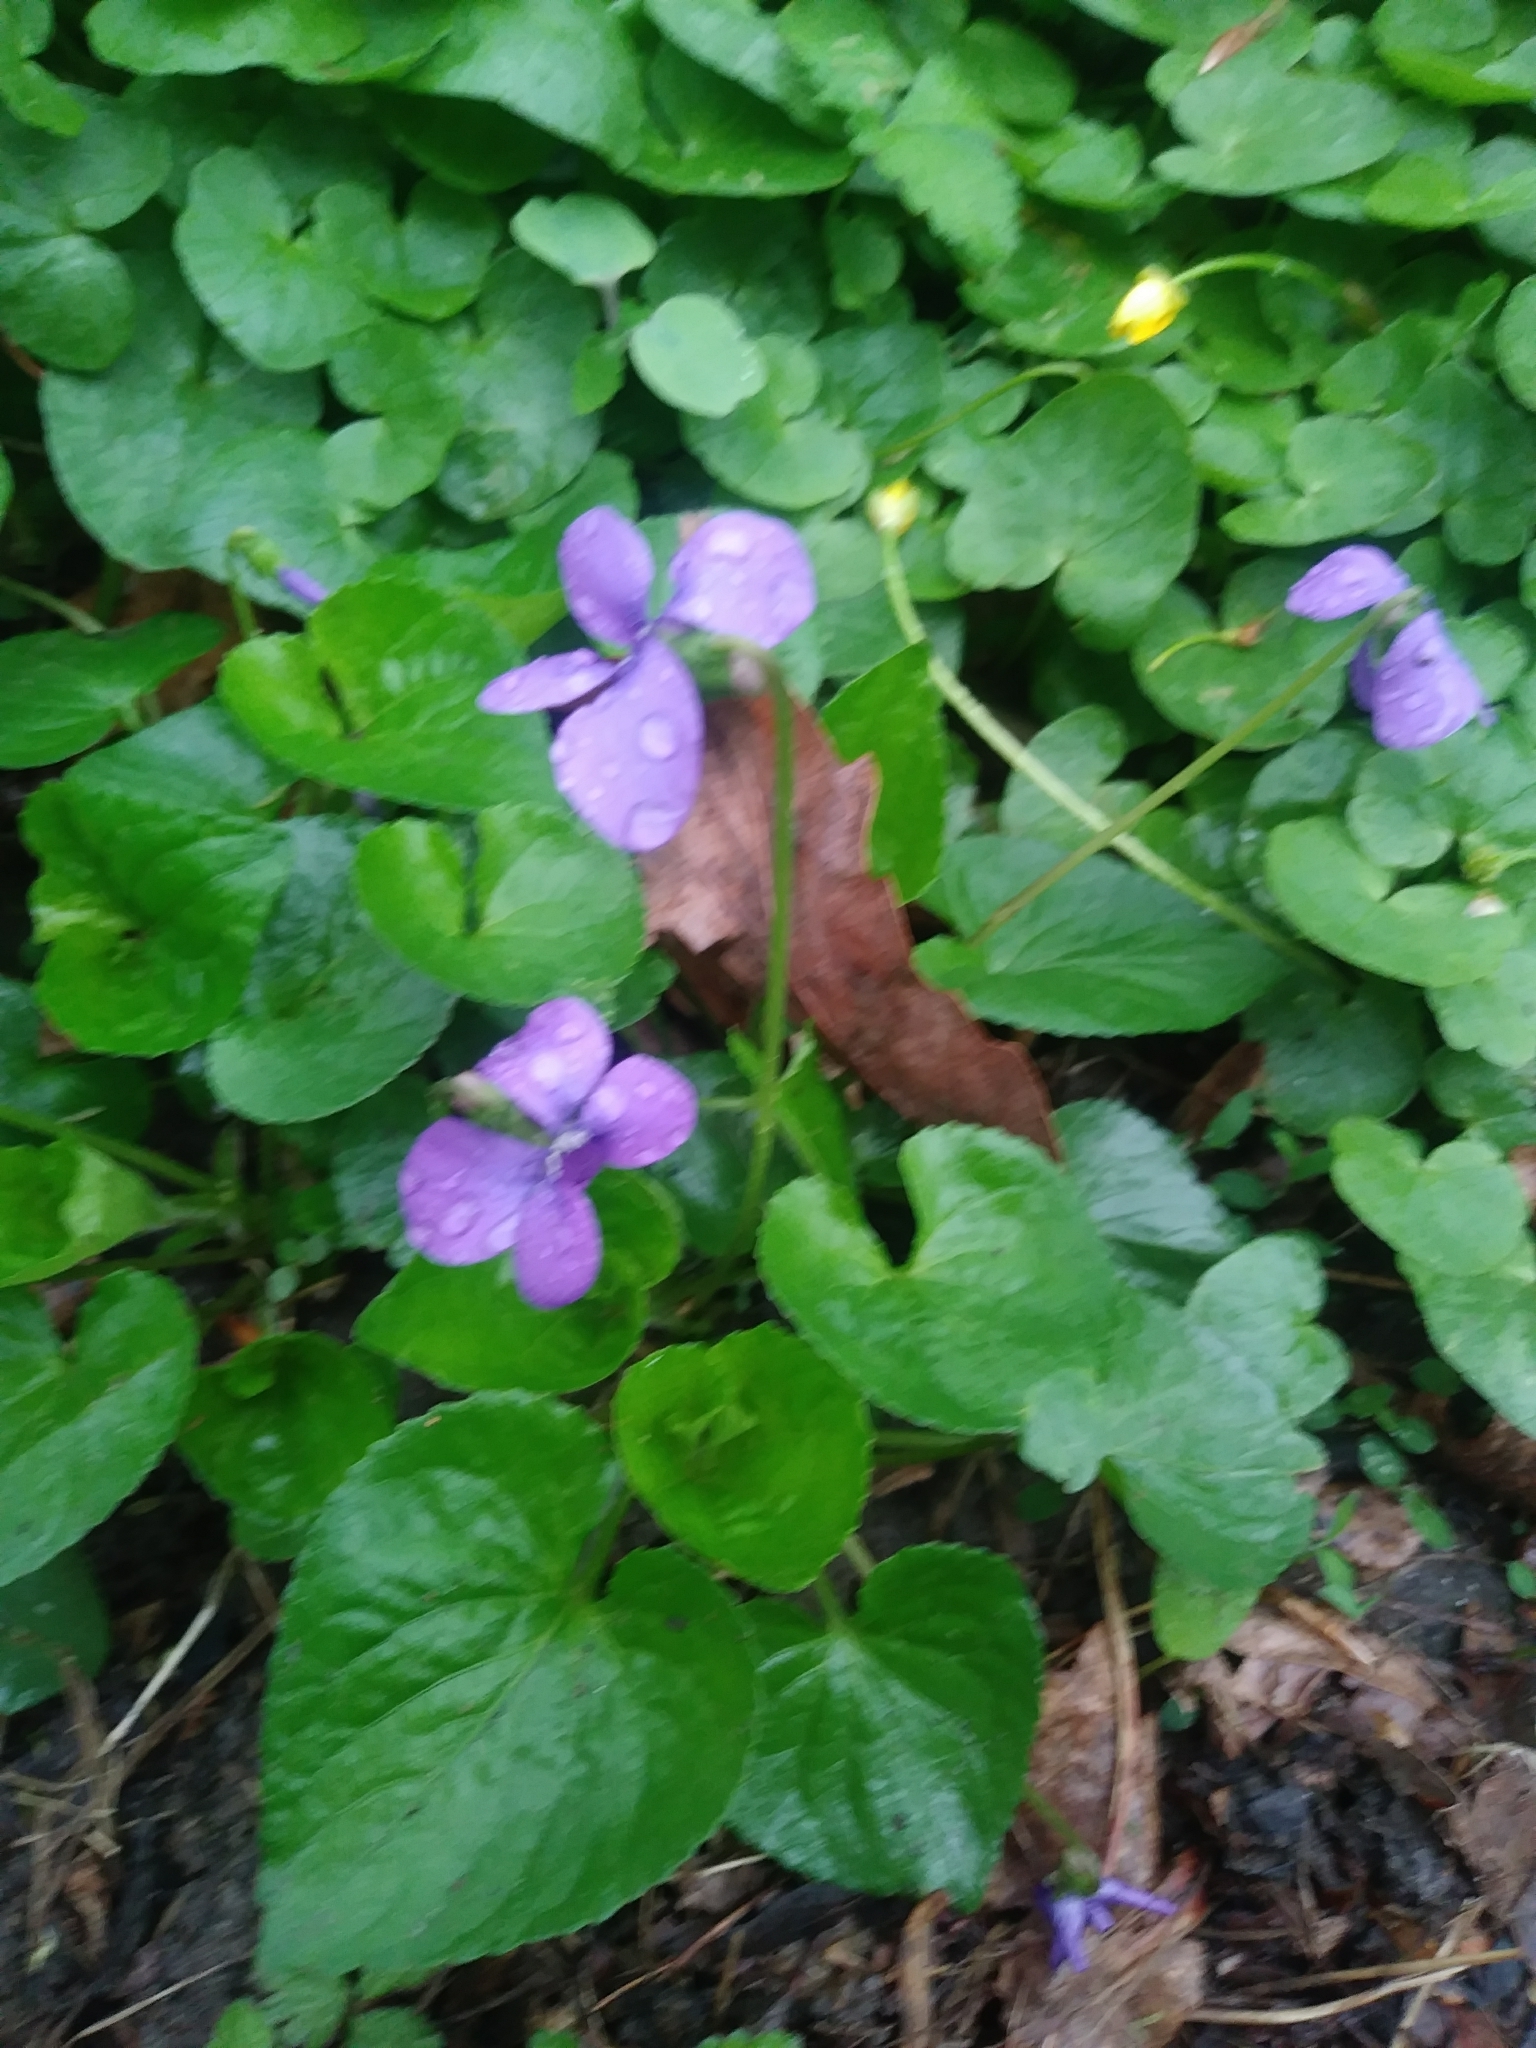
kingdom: Plantae
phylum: Tracheophyta
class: Magnoliopsida
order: Malpighiales
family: Violaceae
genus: Viola
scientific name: Viola sororia
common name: Dooryard violet
